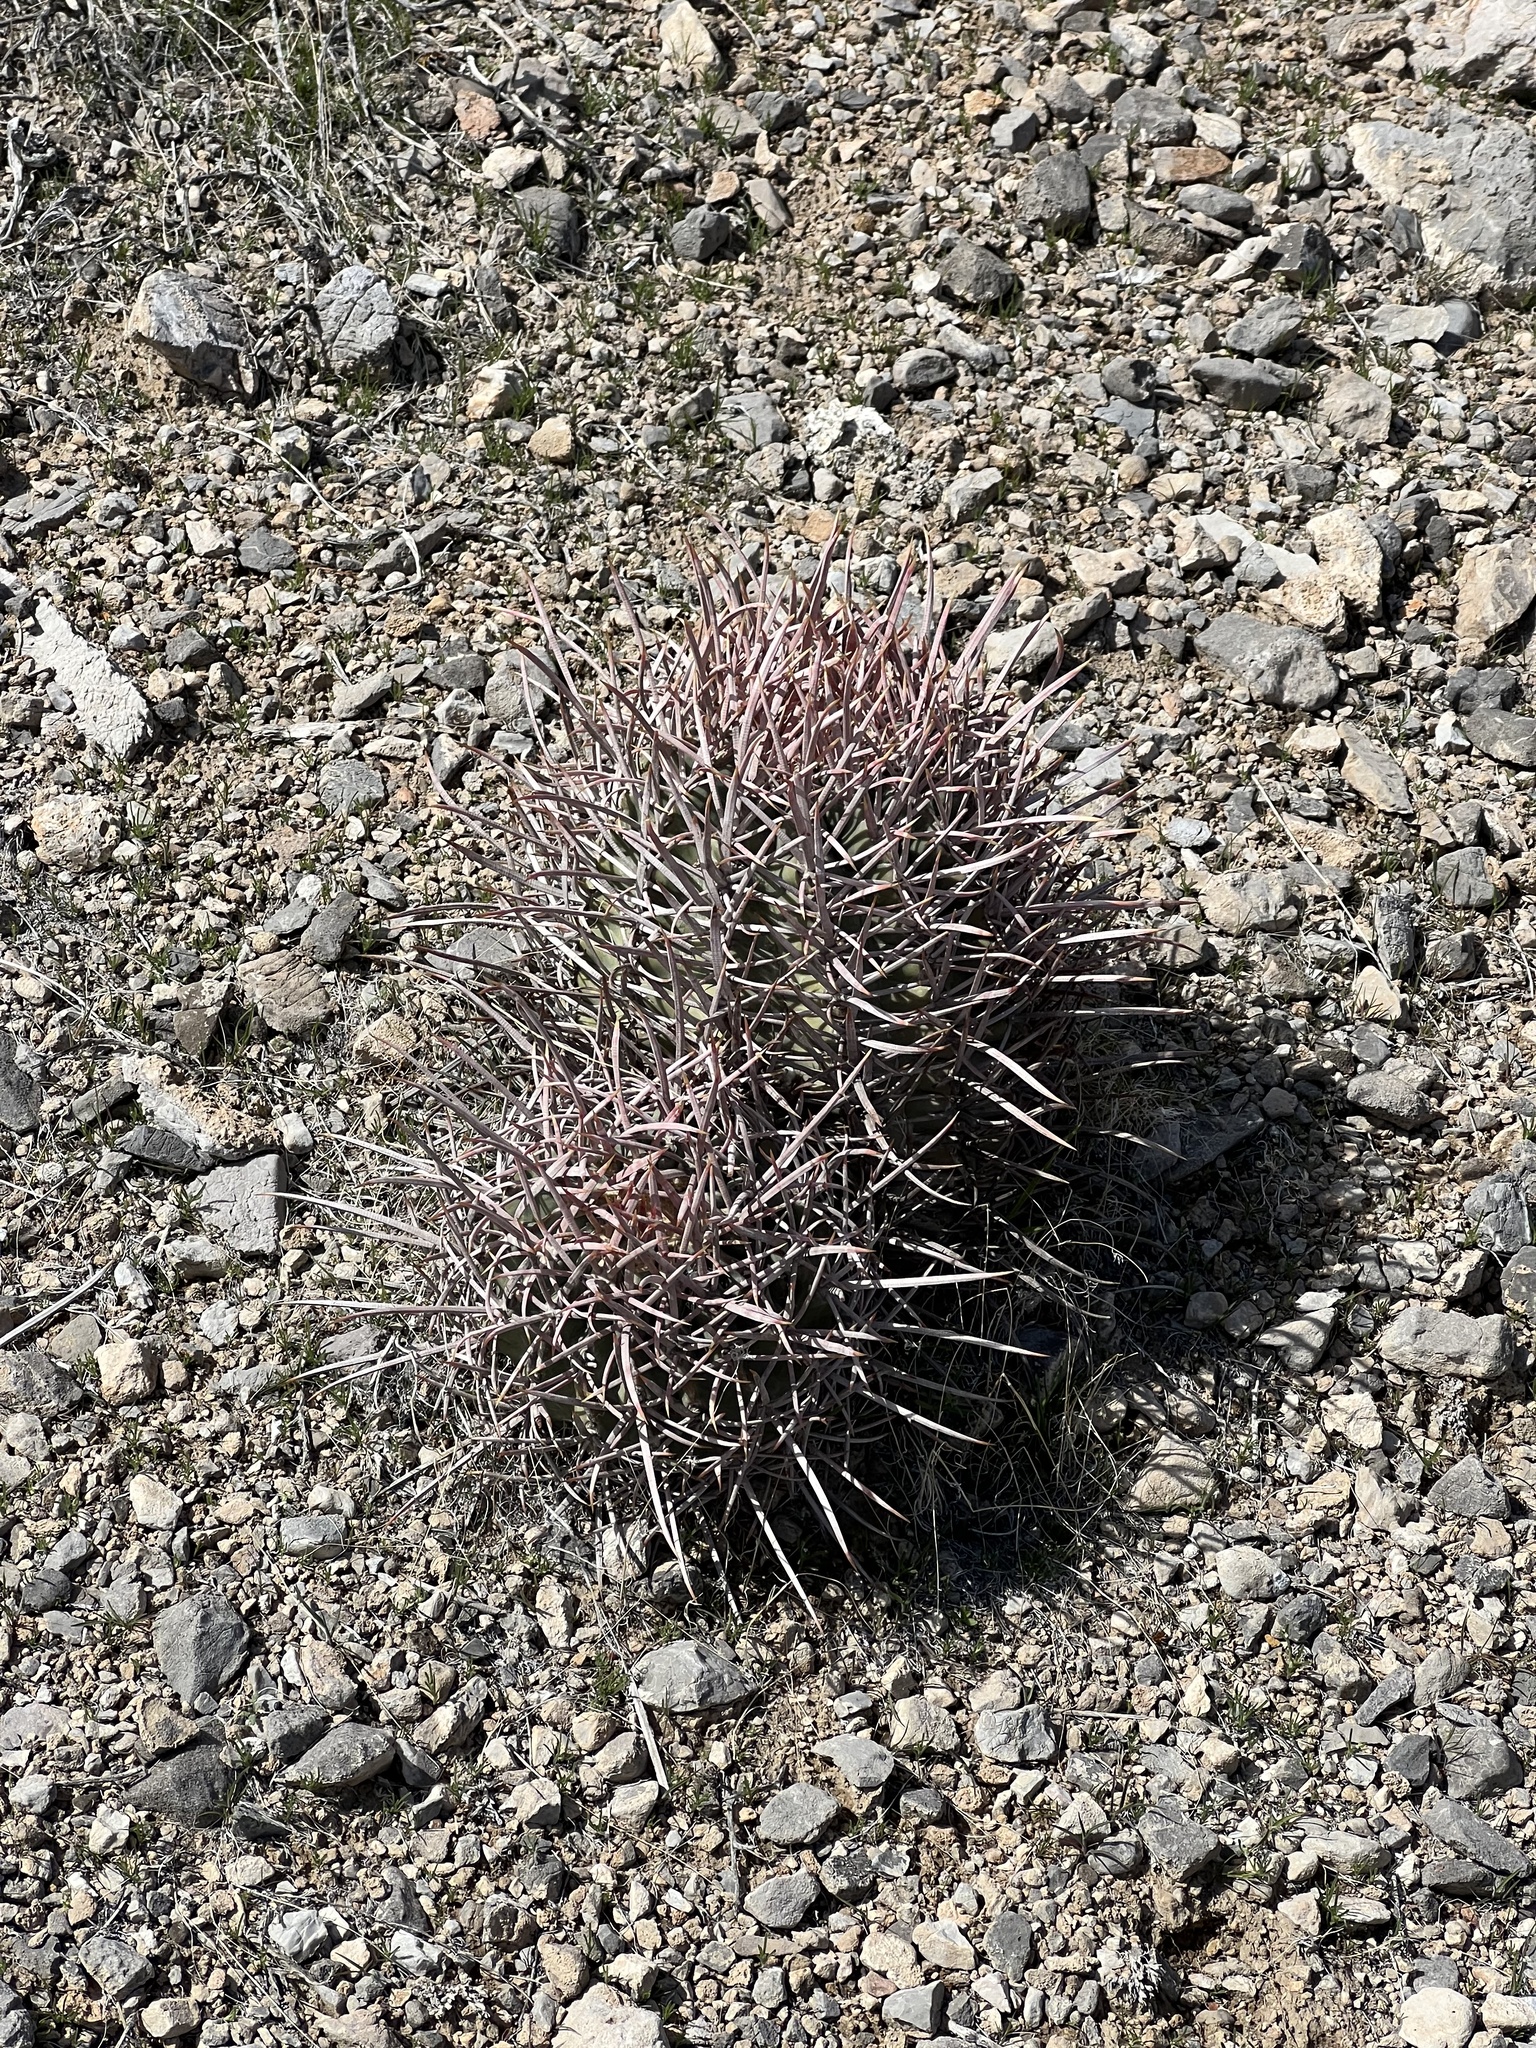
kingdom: Plantae
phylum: Tracheophyta
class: Magnoliopsida
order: Caryophyllales
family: Cactaceae
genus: Echinocactus
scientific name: Echinocactus polycephalus
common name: Cottontop cactus
